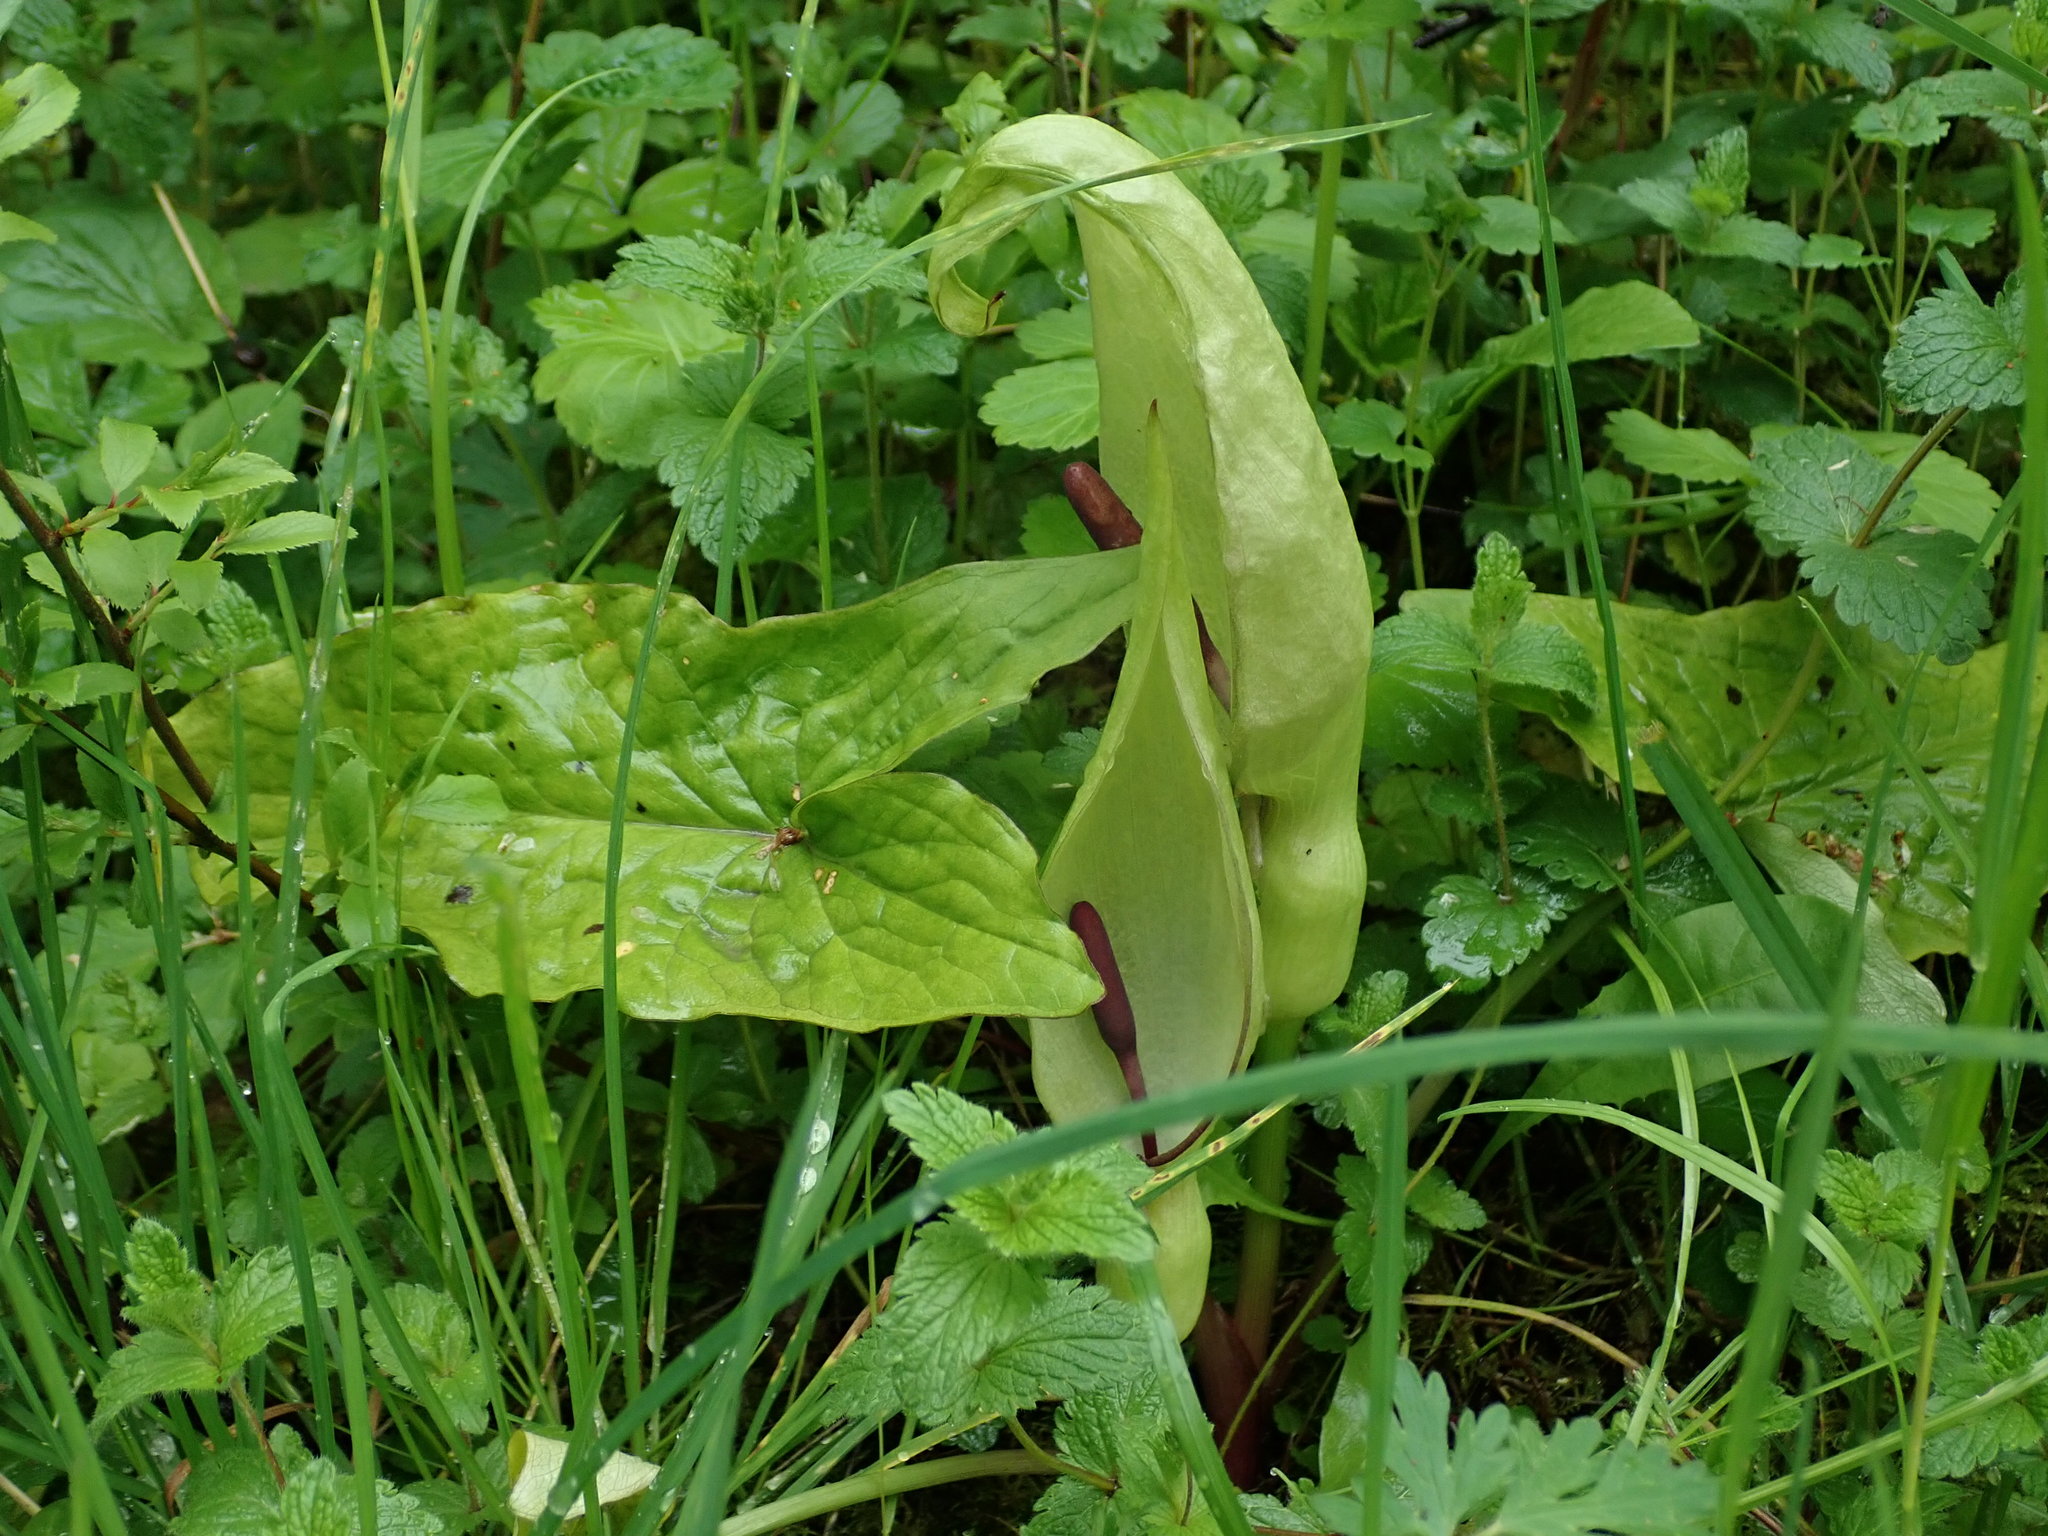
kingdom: Plantae
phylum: Tracheophyta
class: Liliopsida
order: Alismatales
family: Araceae
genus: Arum
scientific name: Arum maculatum
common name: Lords-and-ladies
